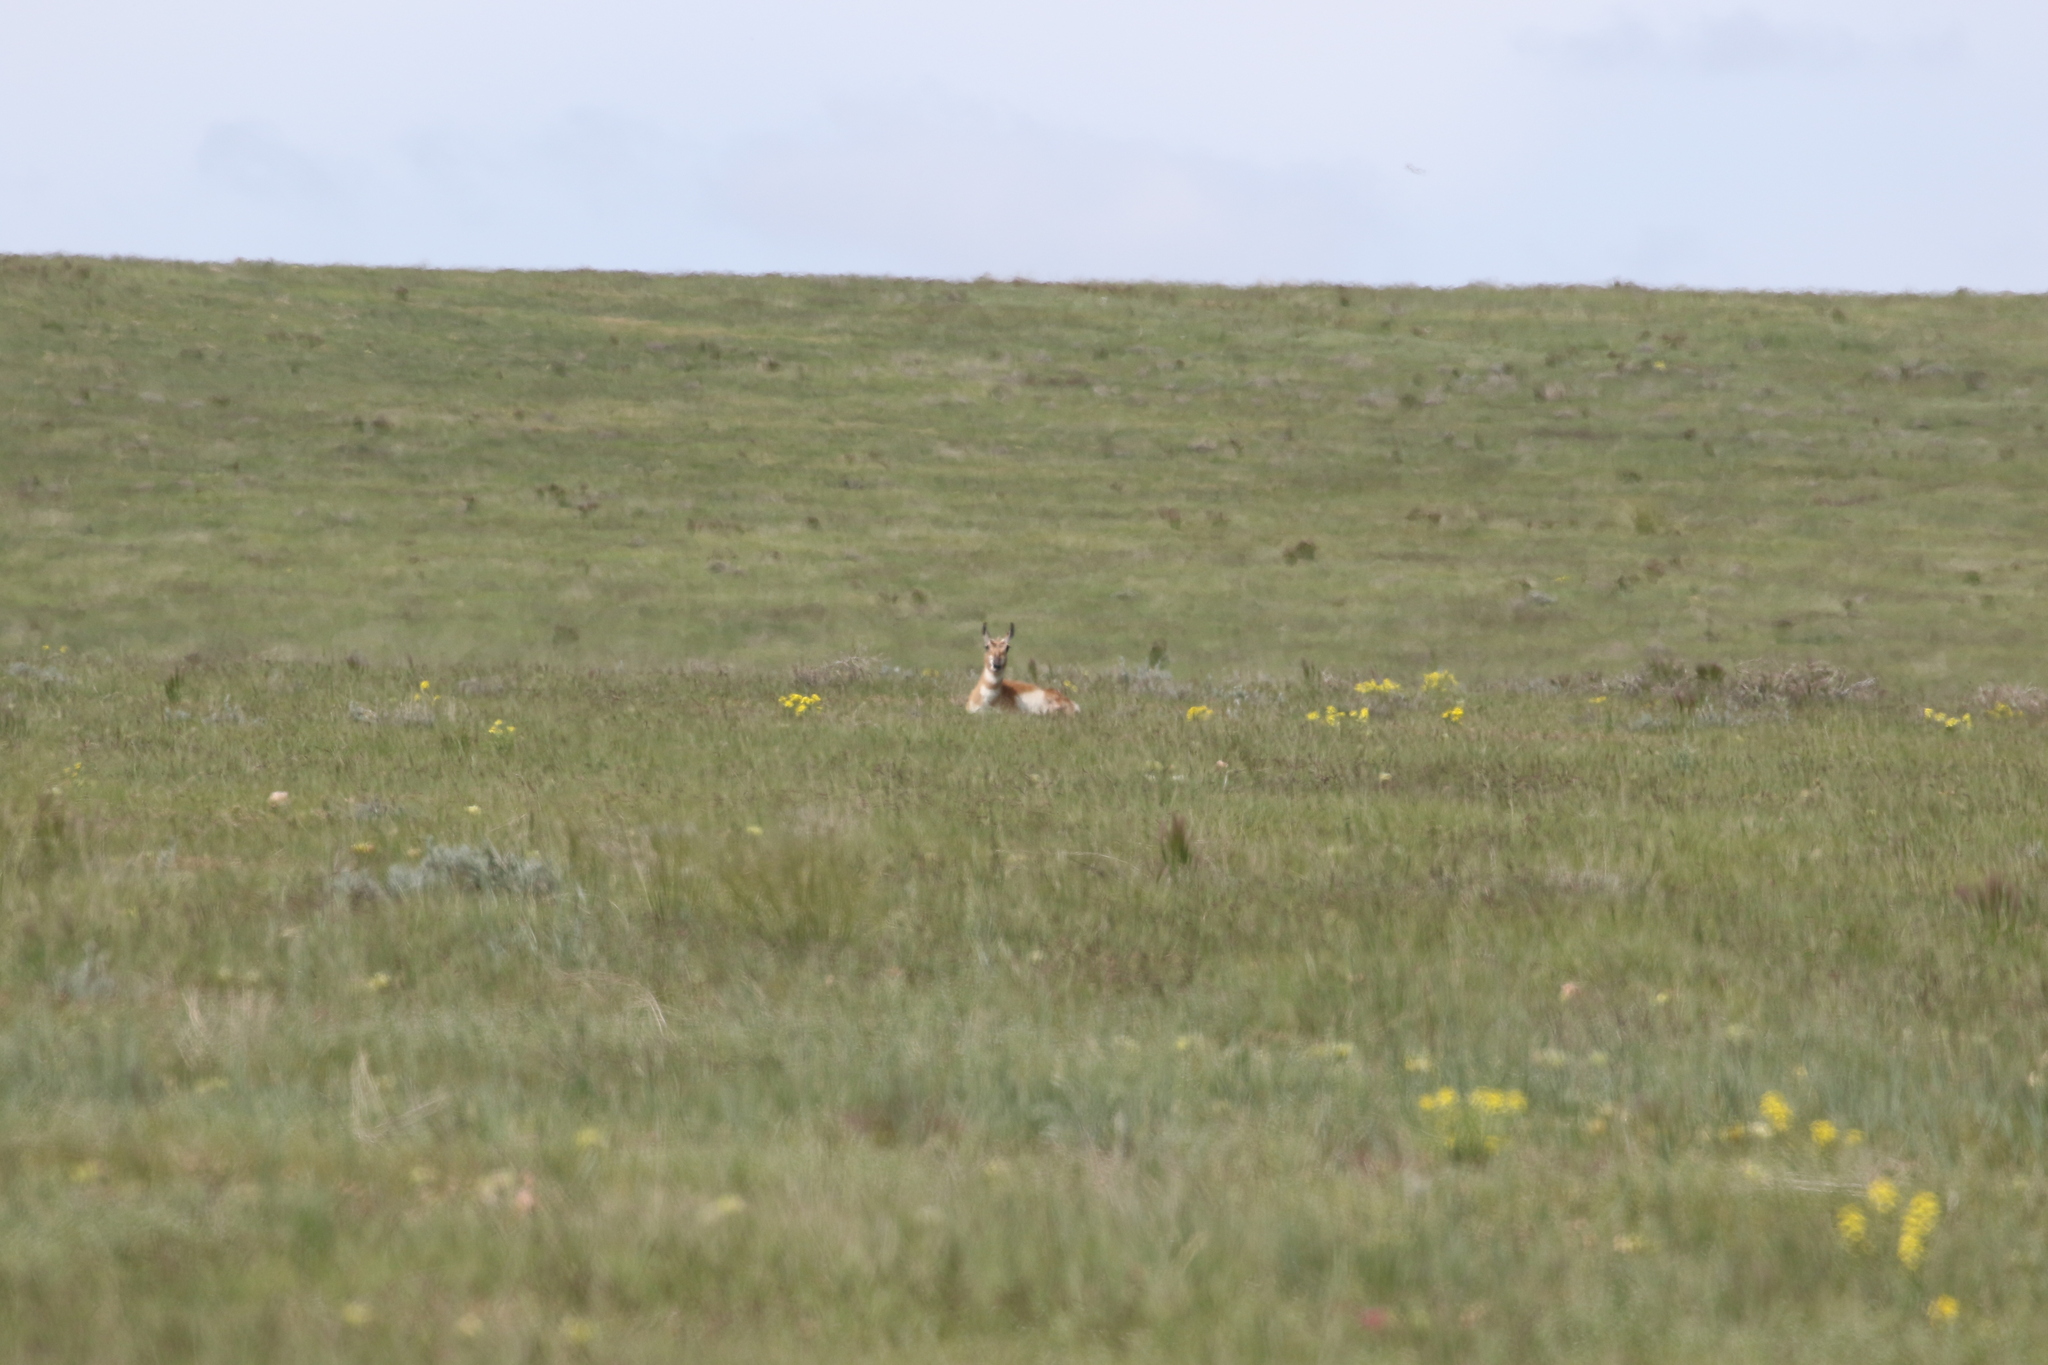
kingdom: Animalia
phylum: Chordata
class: Mammalia
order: Artiodactyla
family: Antilocapridae
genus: Antilocapra
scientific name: Antilocapra americana
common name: Pronghorn
